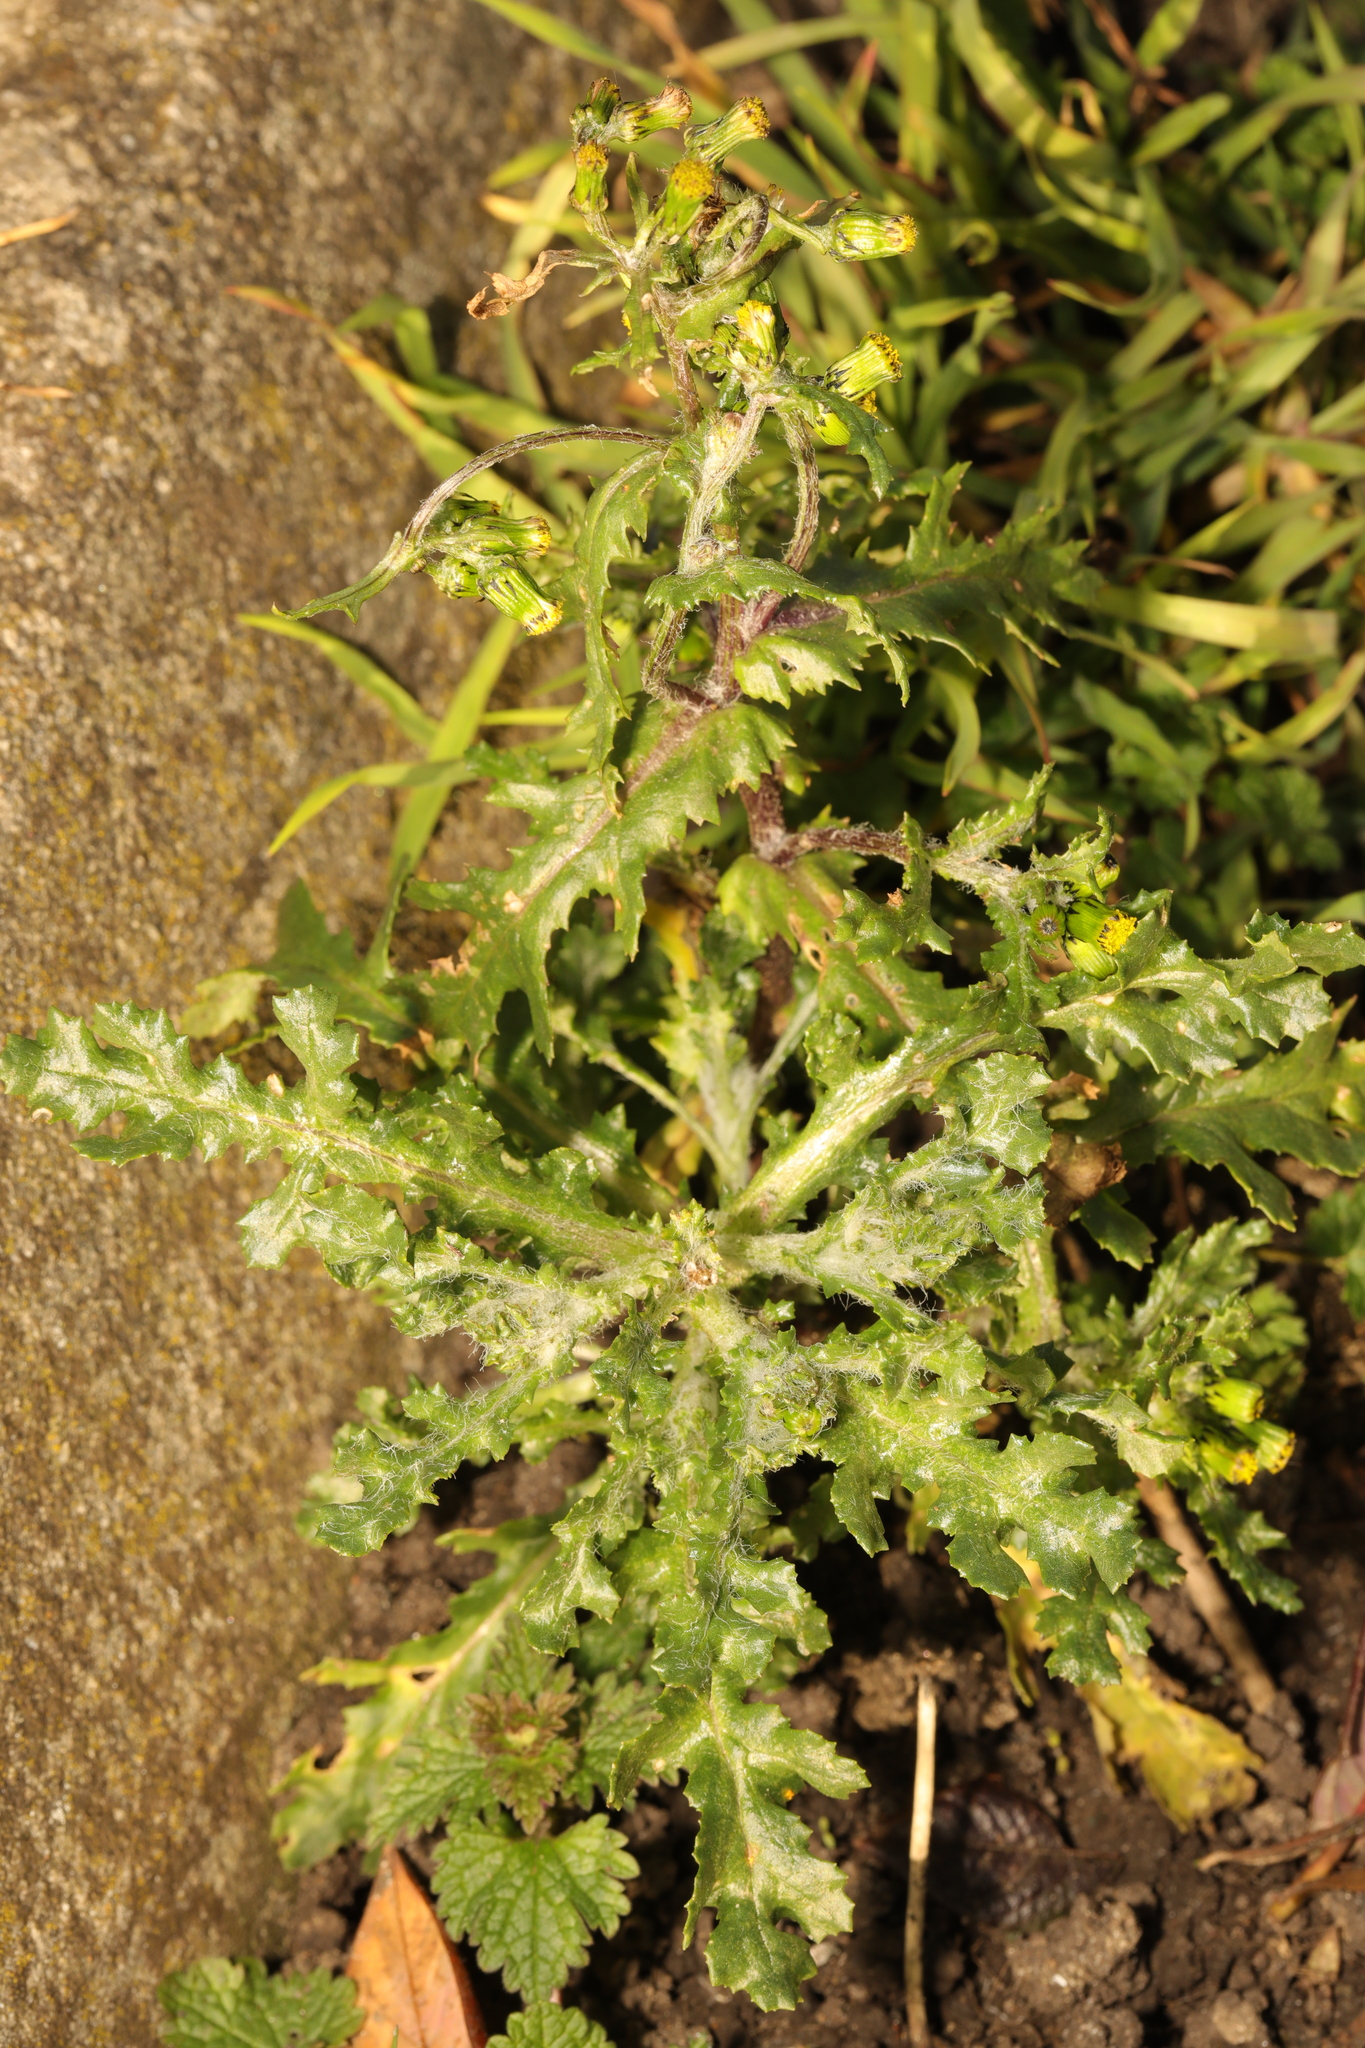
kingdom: Plantae
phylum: Tracheophyta
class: Magnoliopsida
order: Asterales
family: Asteraceae
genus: Senecio
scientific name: Senecio vulgaris
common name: Old-man-in-the-spring
